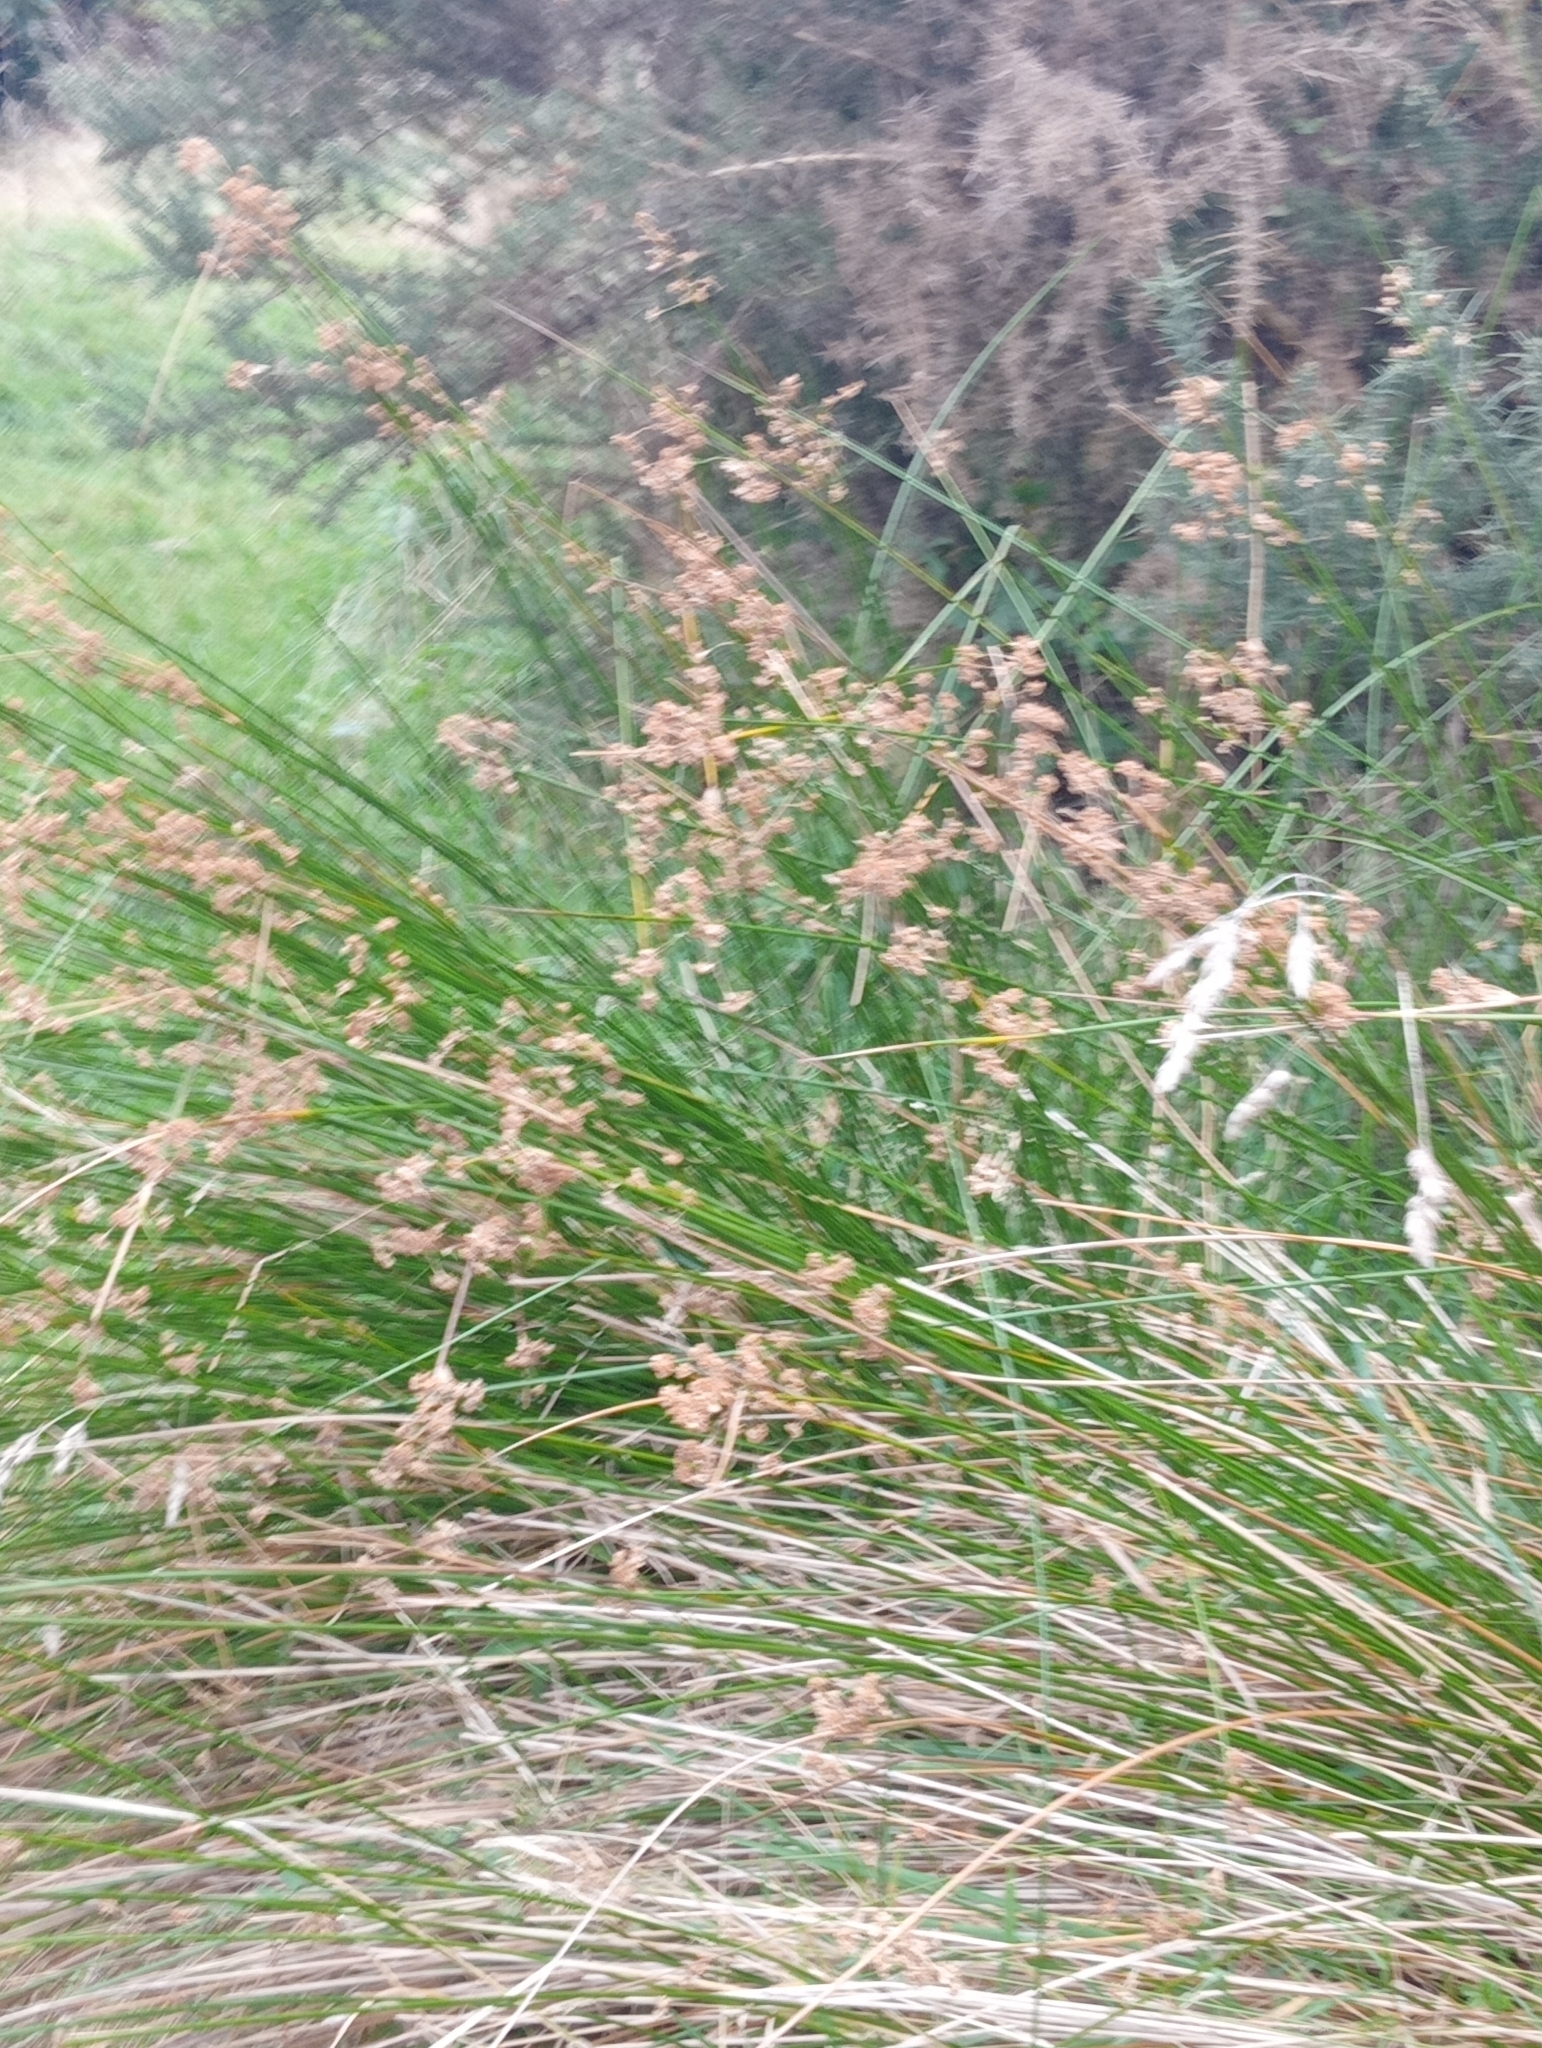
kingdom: Plantae
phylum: Tracheophyta
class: Liliopsida
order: Poales
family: Juncaceae
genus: Juncus
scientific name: Juncus edgariae
